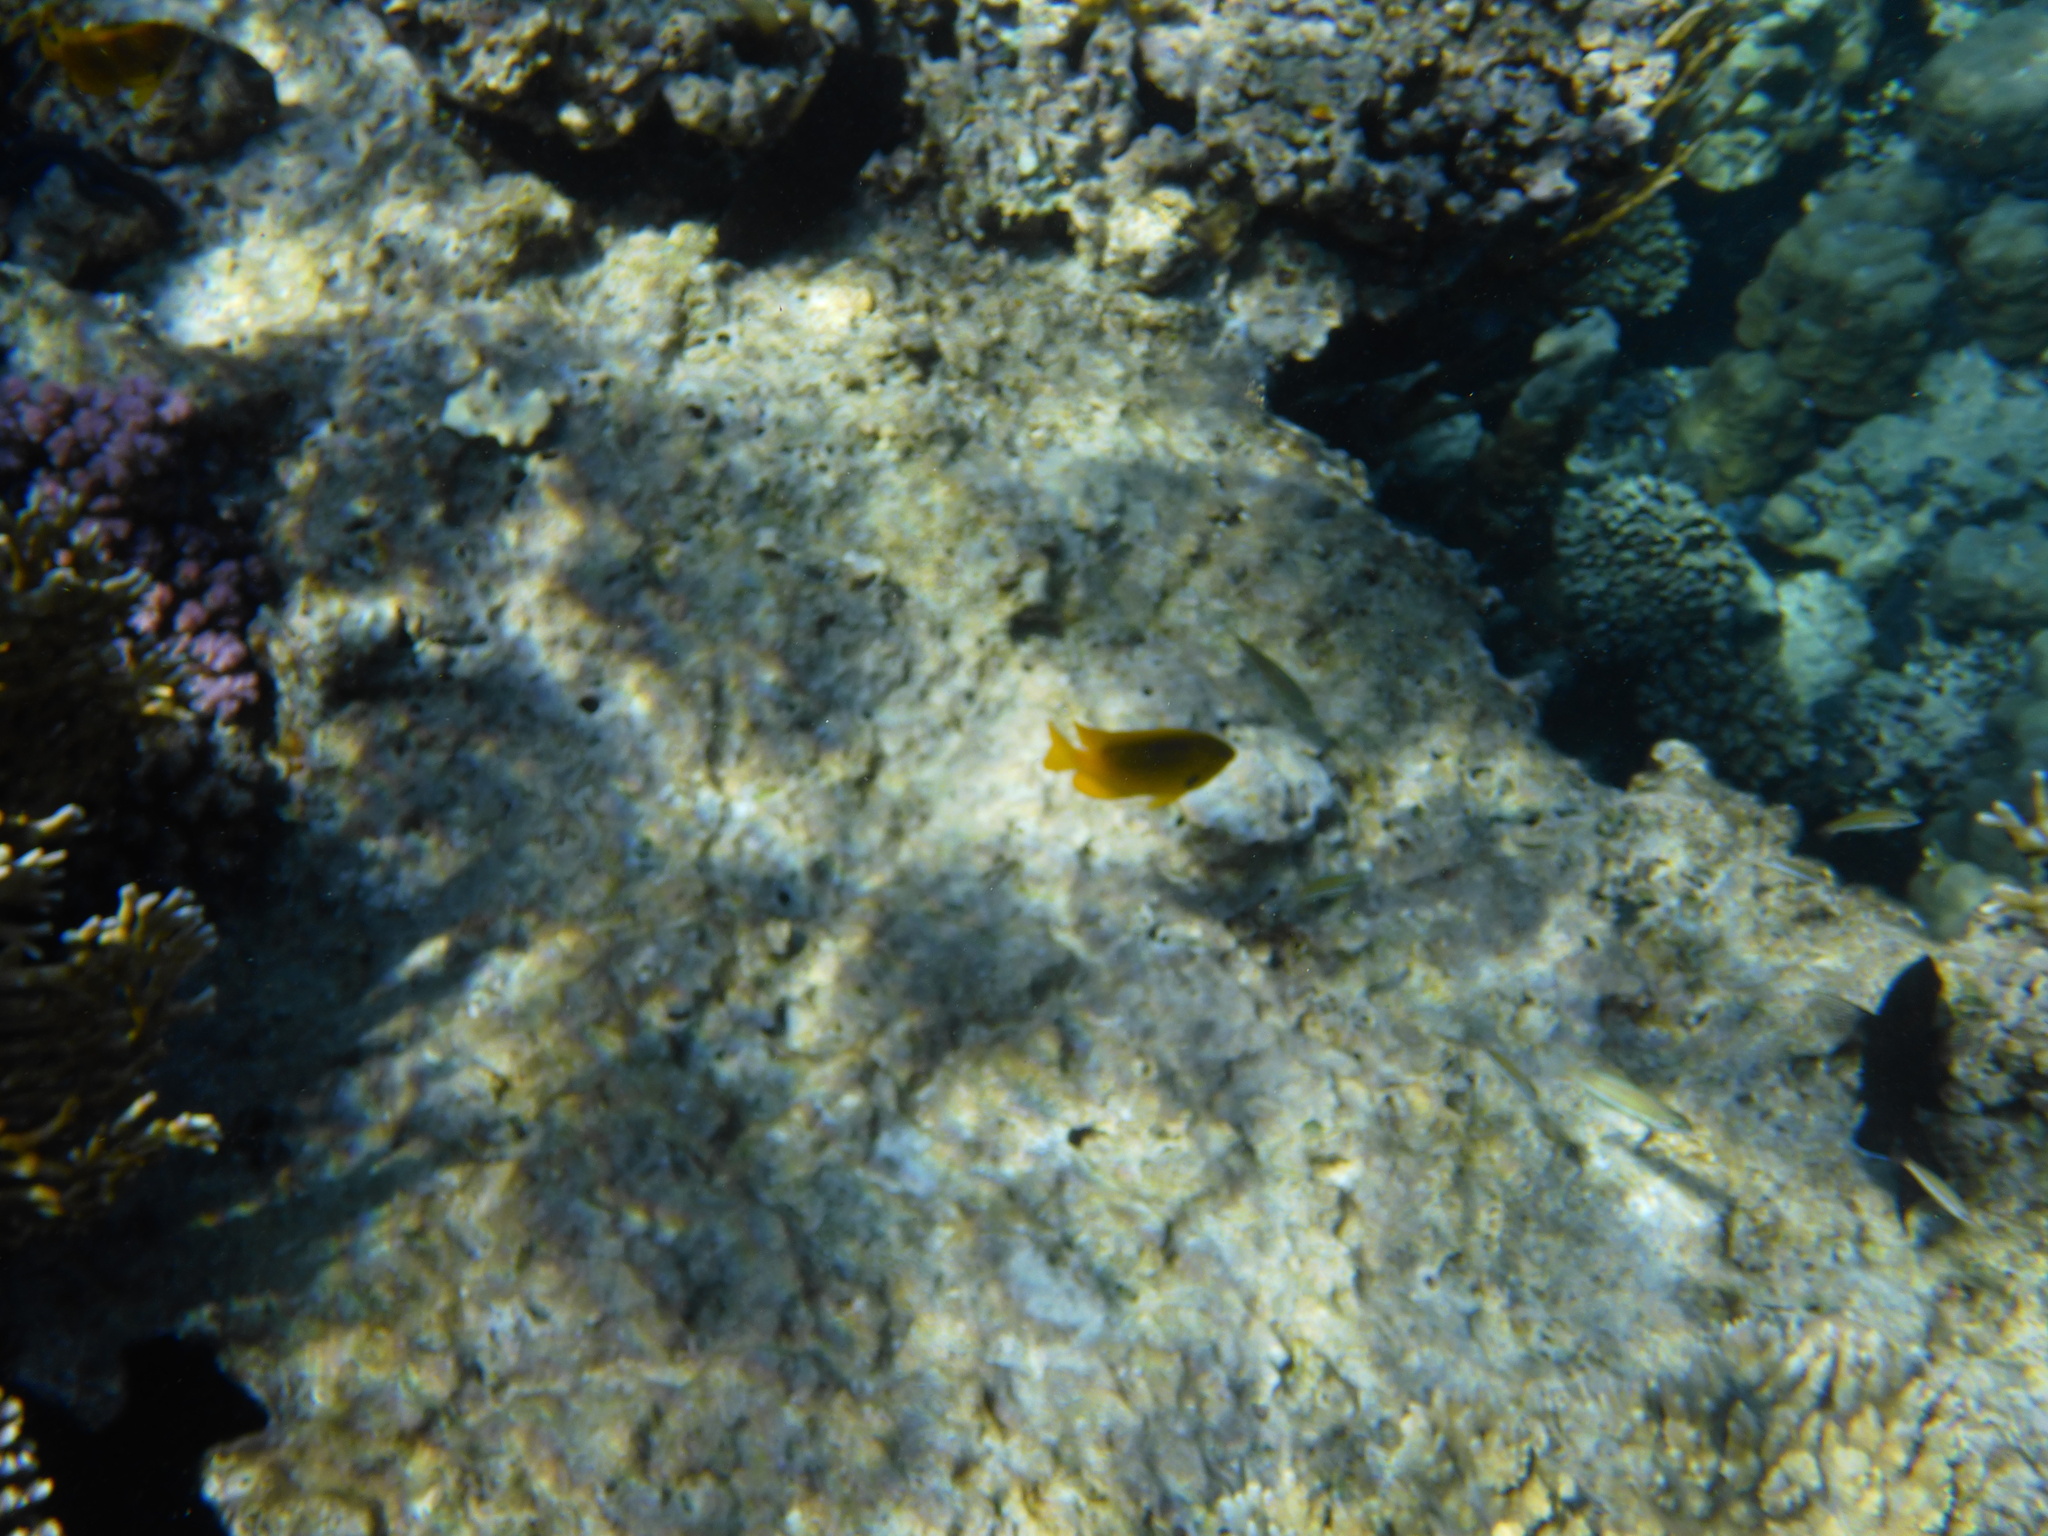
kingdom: Animalia
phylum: Chordata
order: Perciformes
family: Pomacentridae
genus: Pomacentrus
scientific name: Pomacentrus sulfureus
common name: Sulfur damsel
